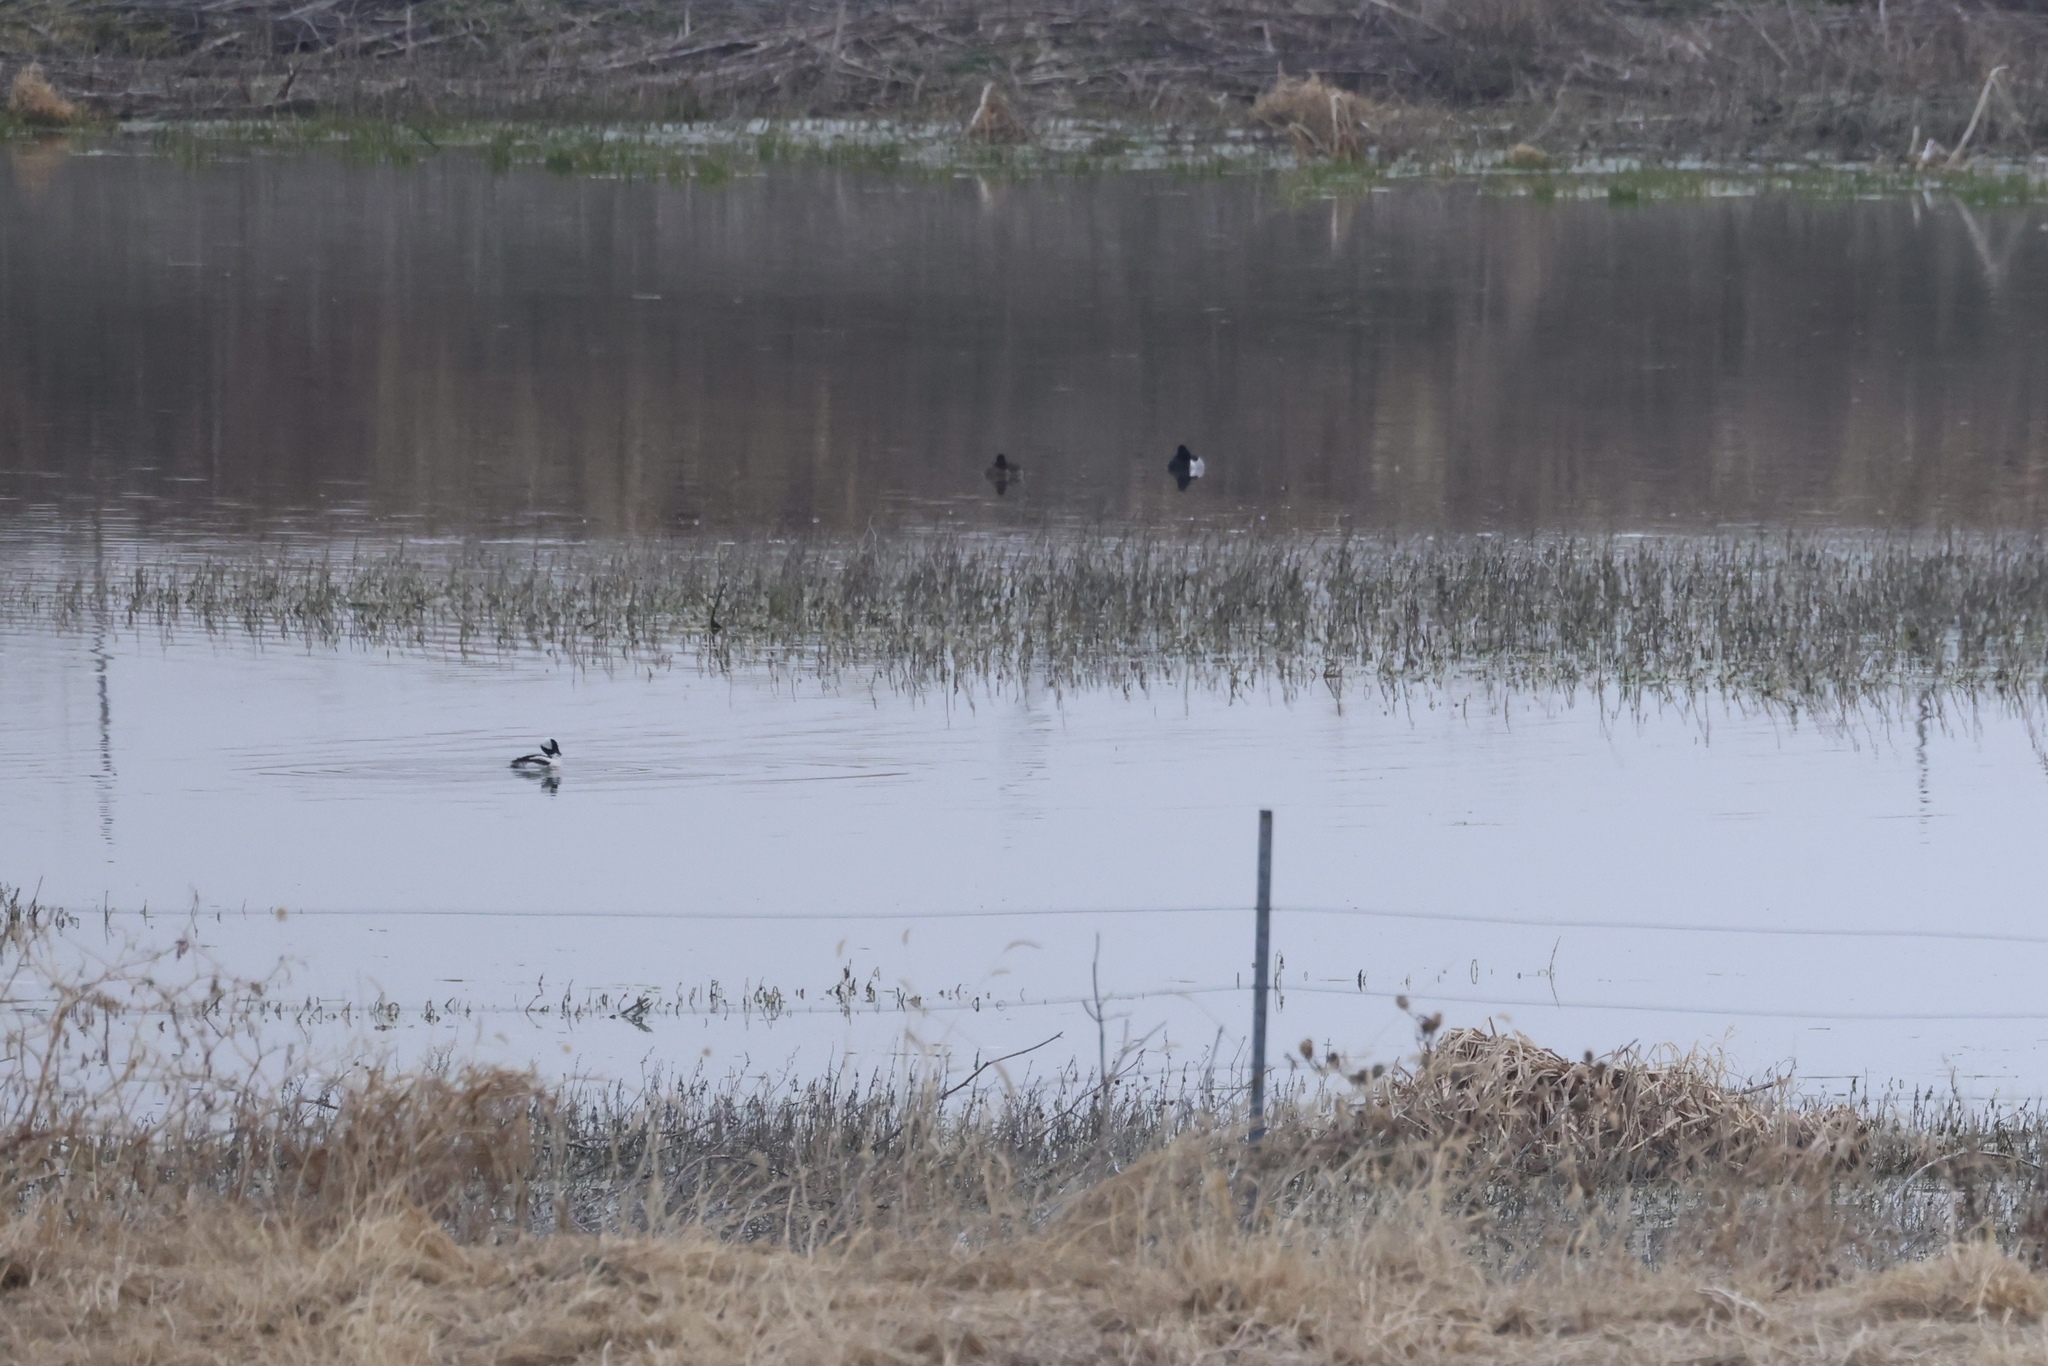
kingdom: Animalia
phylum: Chordata
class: Aves
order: Anseriformes
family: Anatidae
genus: Bucephala
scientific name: Bucephala albeola
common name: Bufflehead
